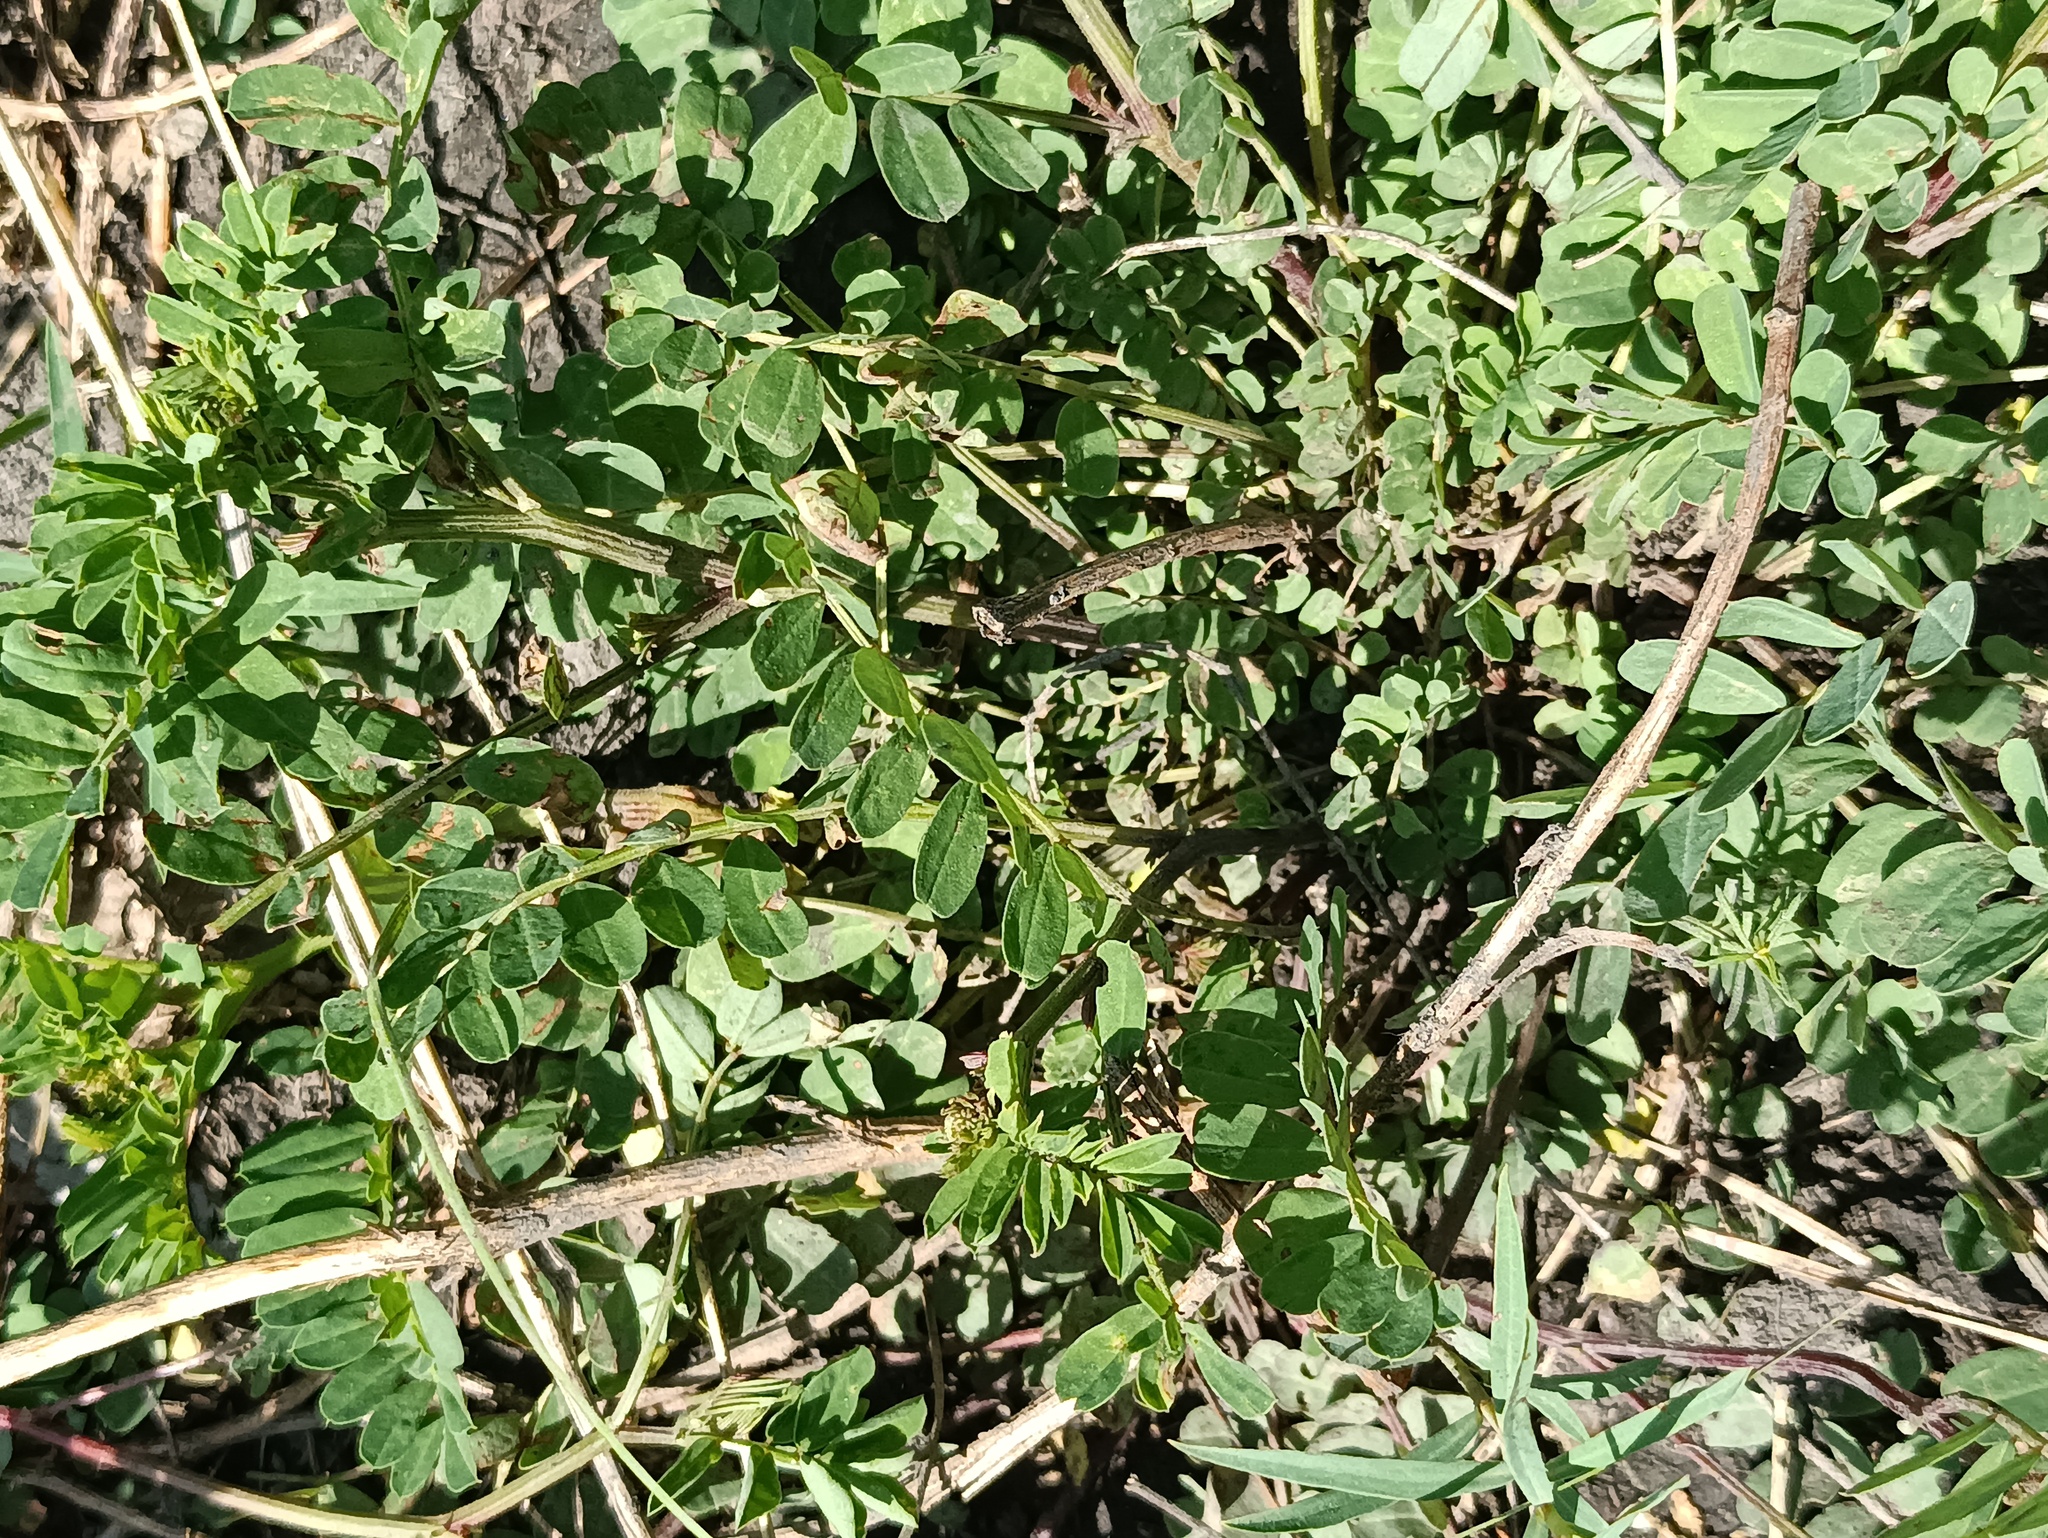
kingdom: Plantae
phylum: Tracheophyta
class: Magnoliopsida
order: Fabales
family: Fabaceae
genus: Coronilla
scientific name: Coronilla varia
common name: Crownvetch
